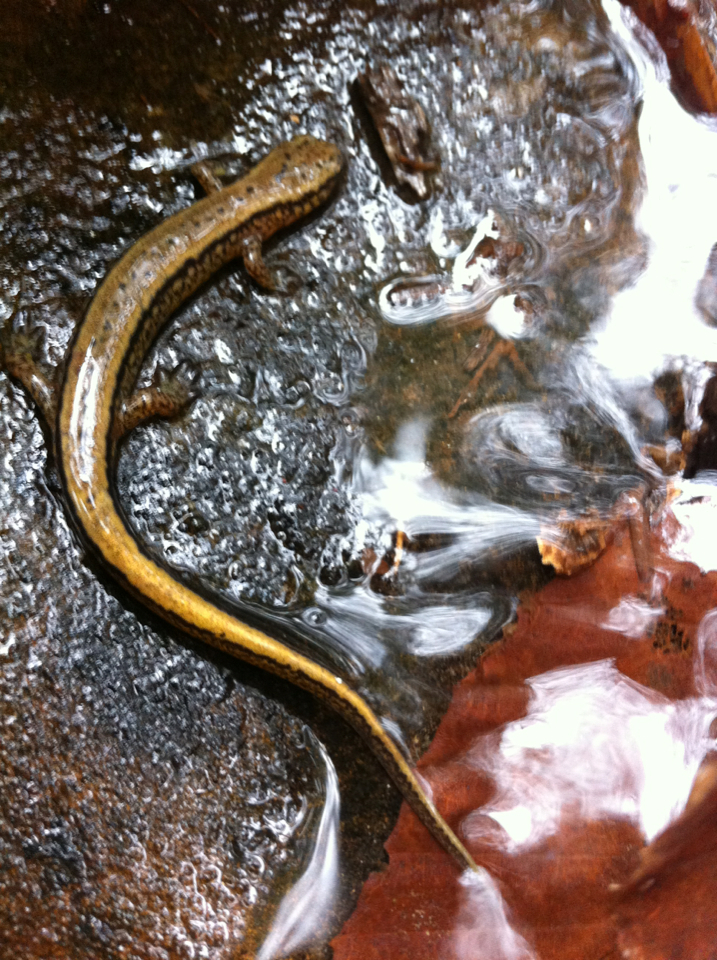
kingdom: Animalia
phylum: Chordata
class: Amphibia
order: Caudata
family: Plethodontidae
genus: Eurycea
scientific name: Eurycea cirrigera
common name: Southern two-lined salamander
